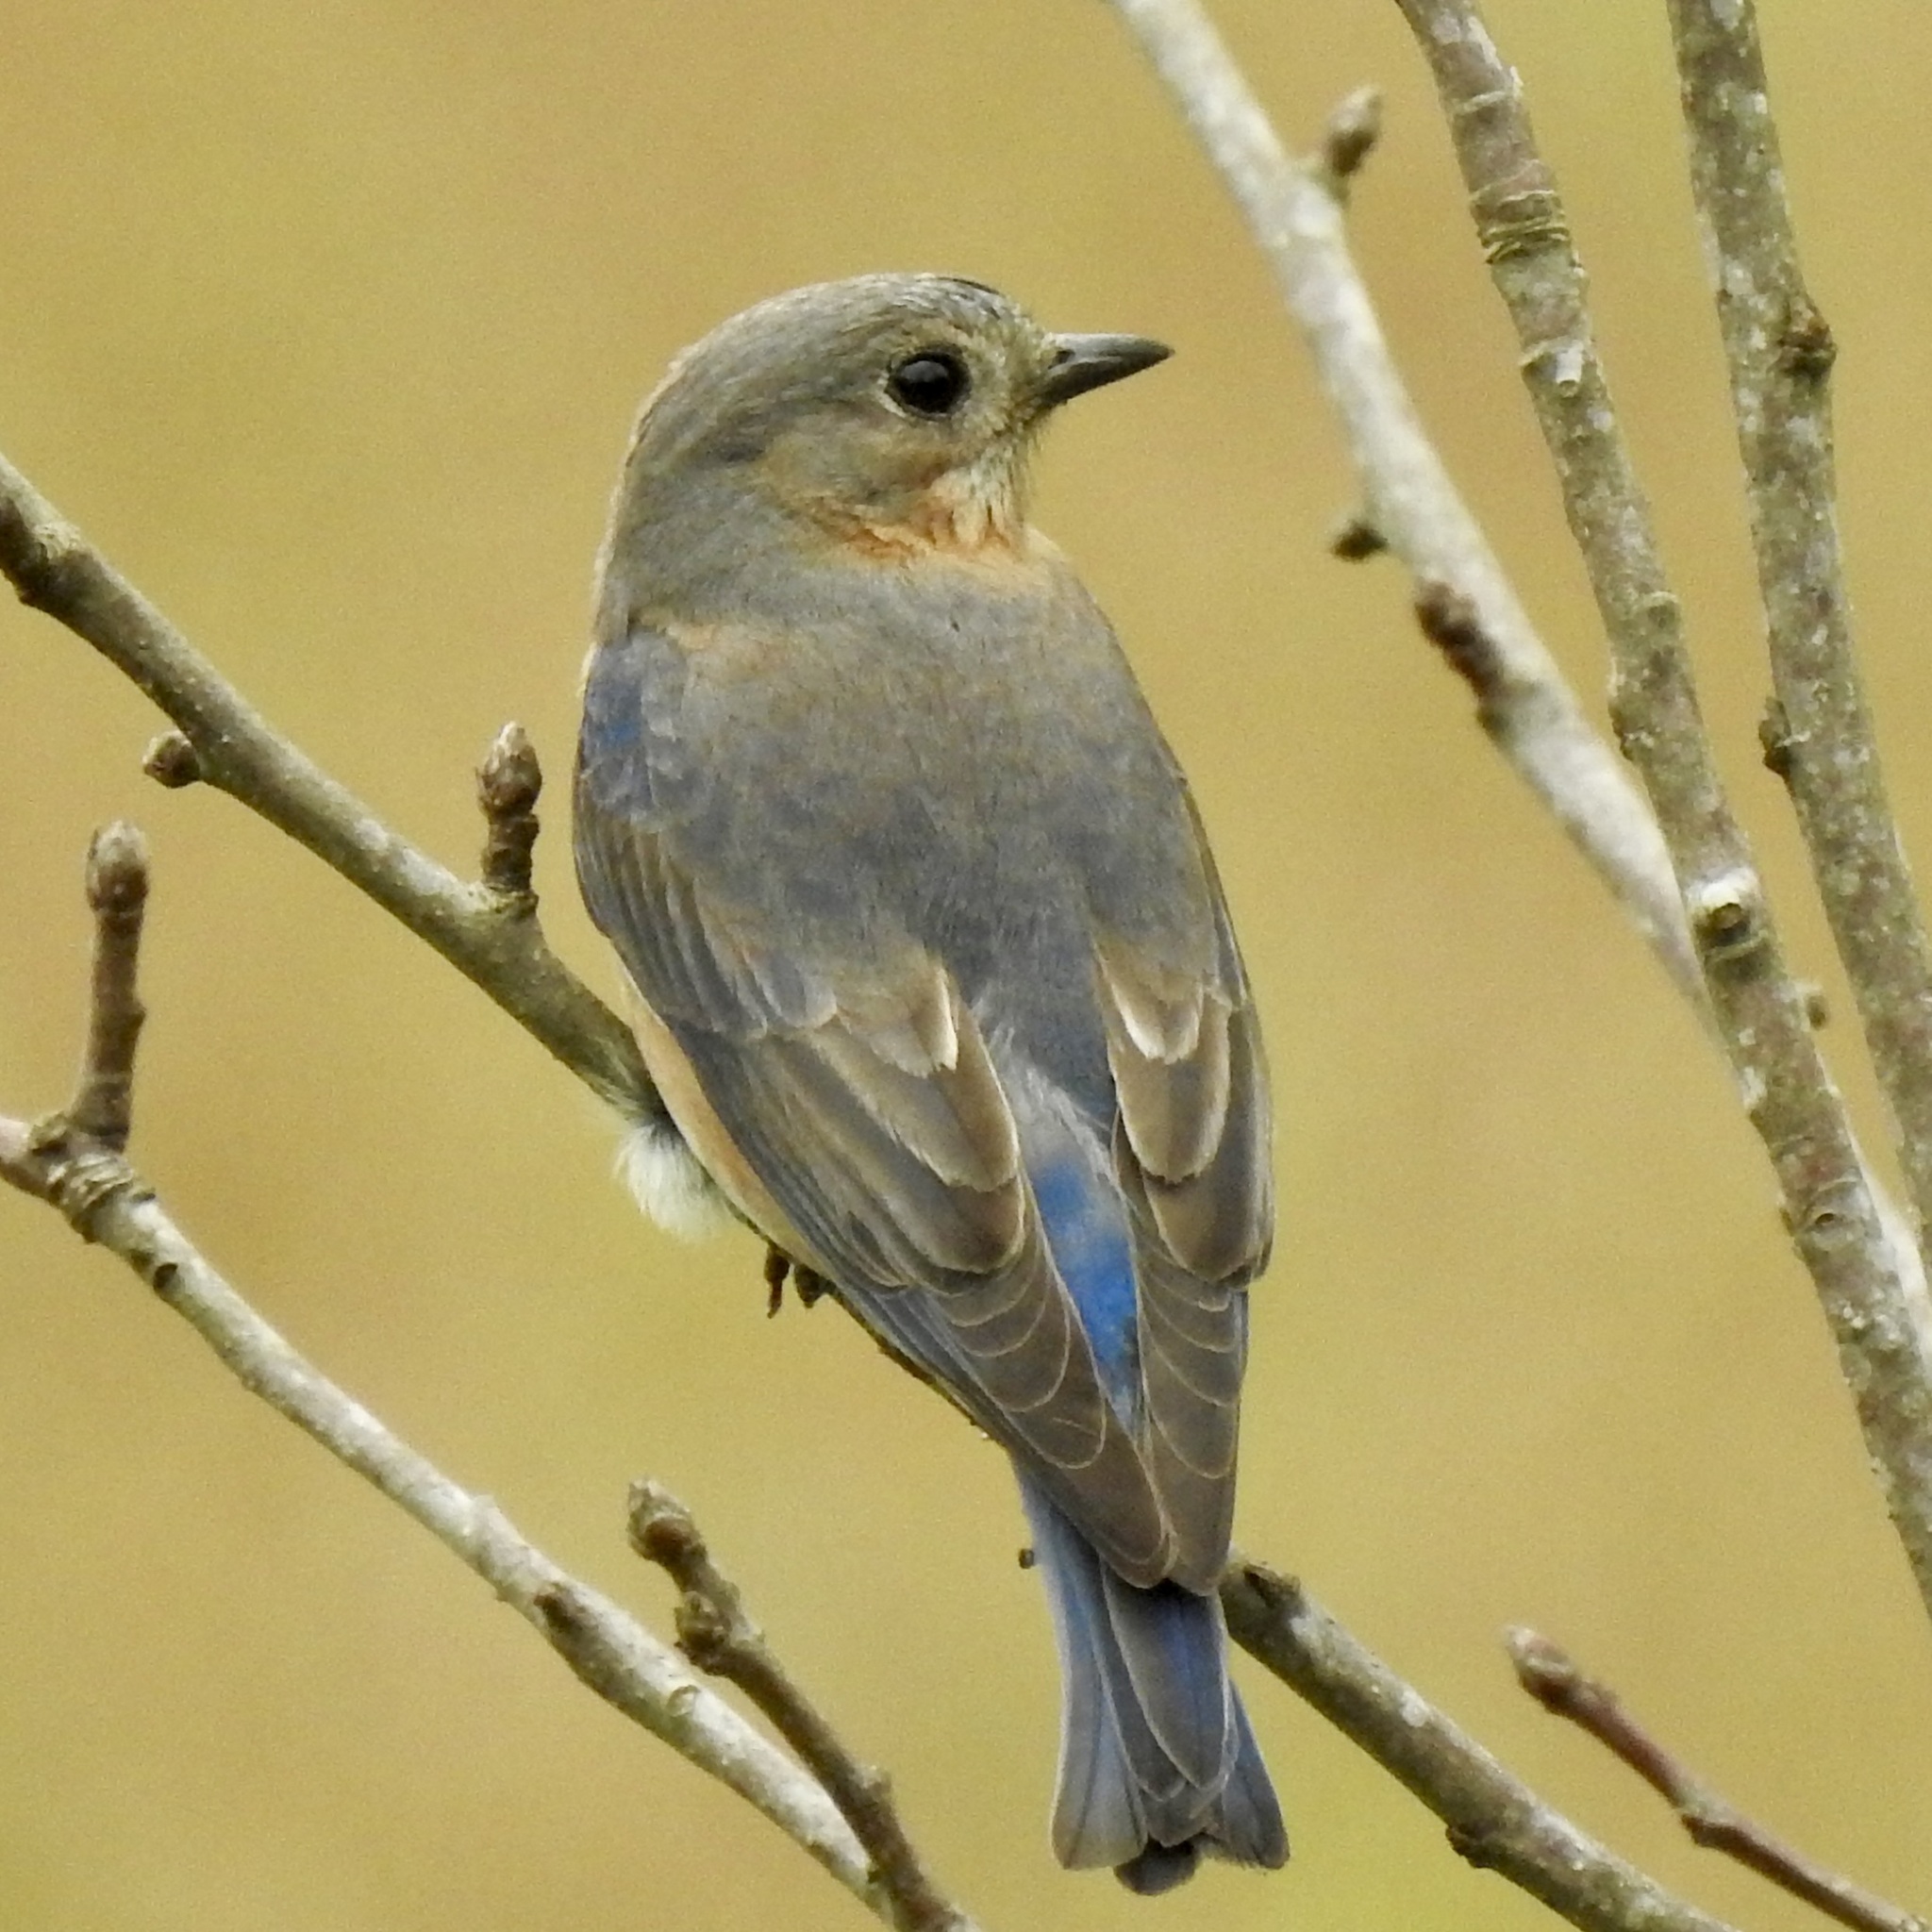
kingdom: Animalia
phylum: Chordata
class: Aves
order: Passeriformes
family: Turdidae
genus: Sialia
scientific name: Sialia sialis
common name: Eastern bluebird
